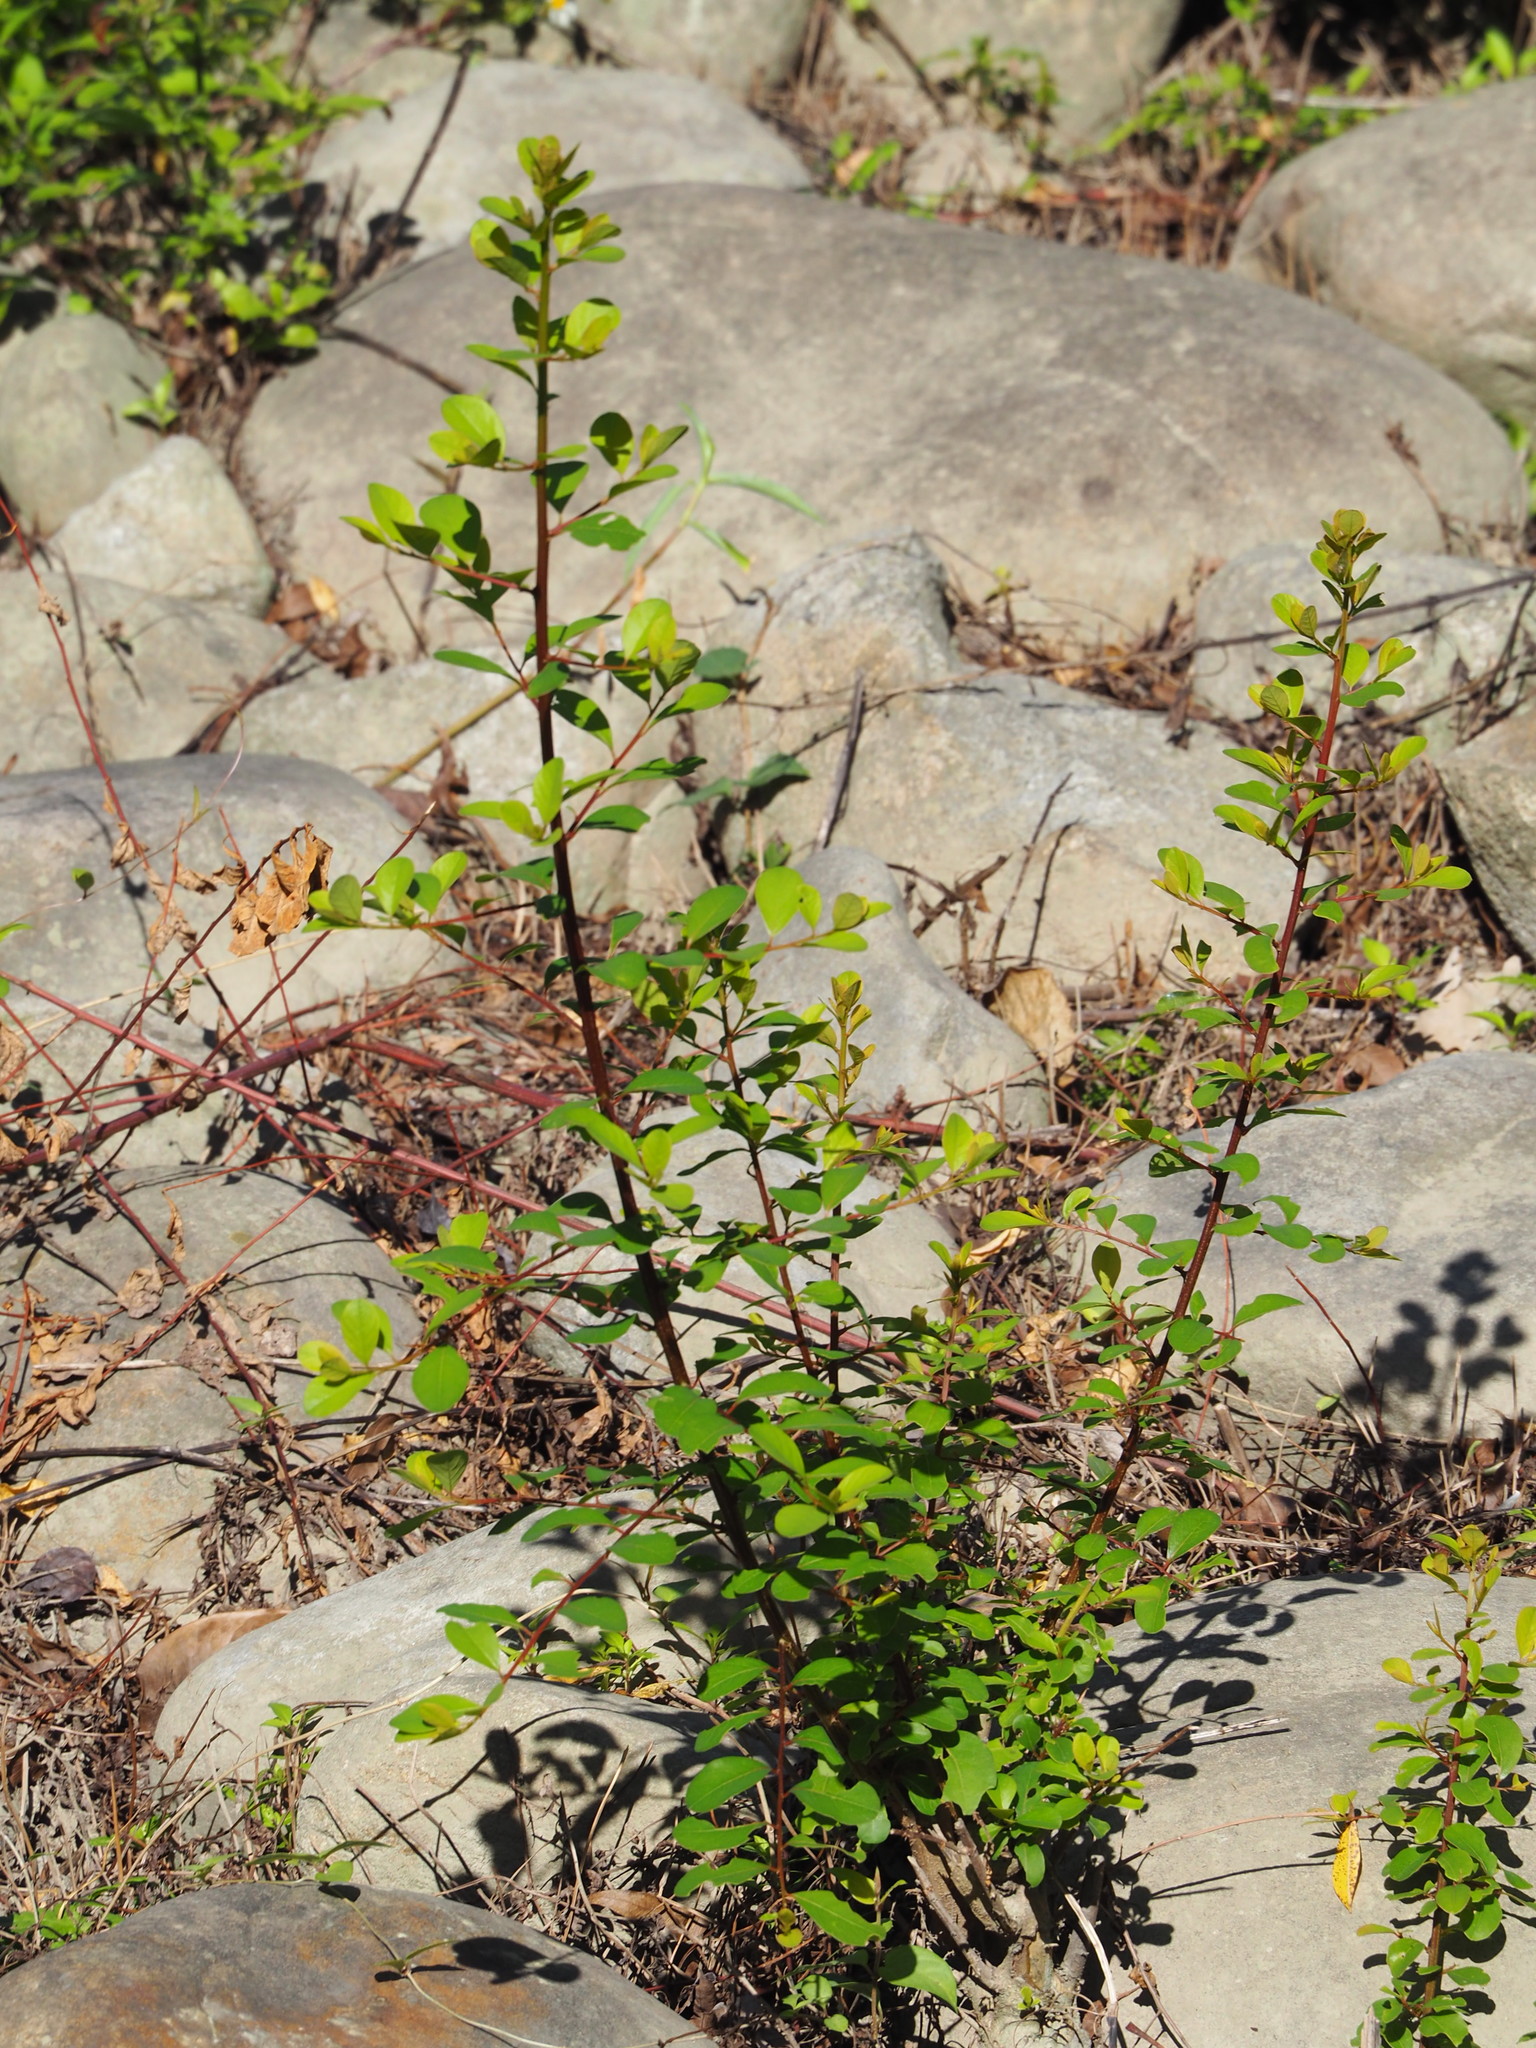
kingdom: Plantae
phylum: Tracheophyta
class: Magnoliopsida
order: Malpighiales
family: Phyllanthaceae
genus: Flueggea
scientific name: Flueggea virosa
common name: Common bushweed
